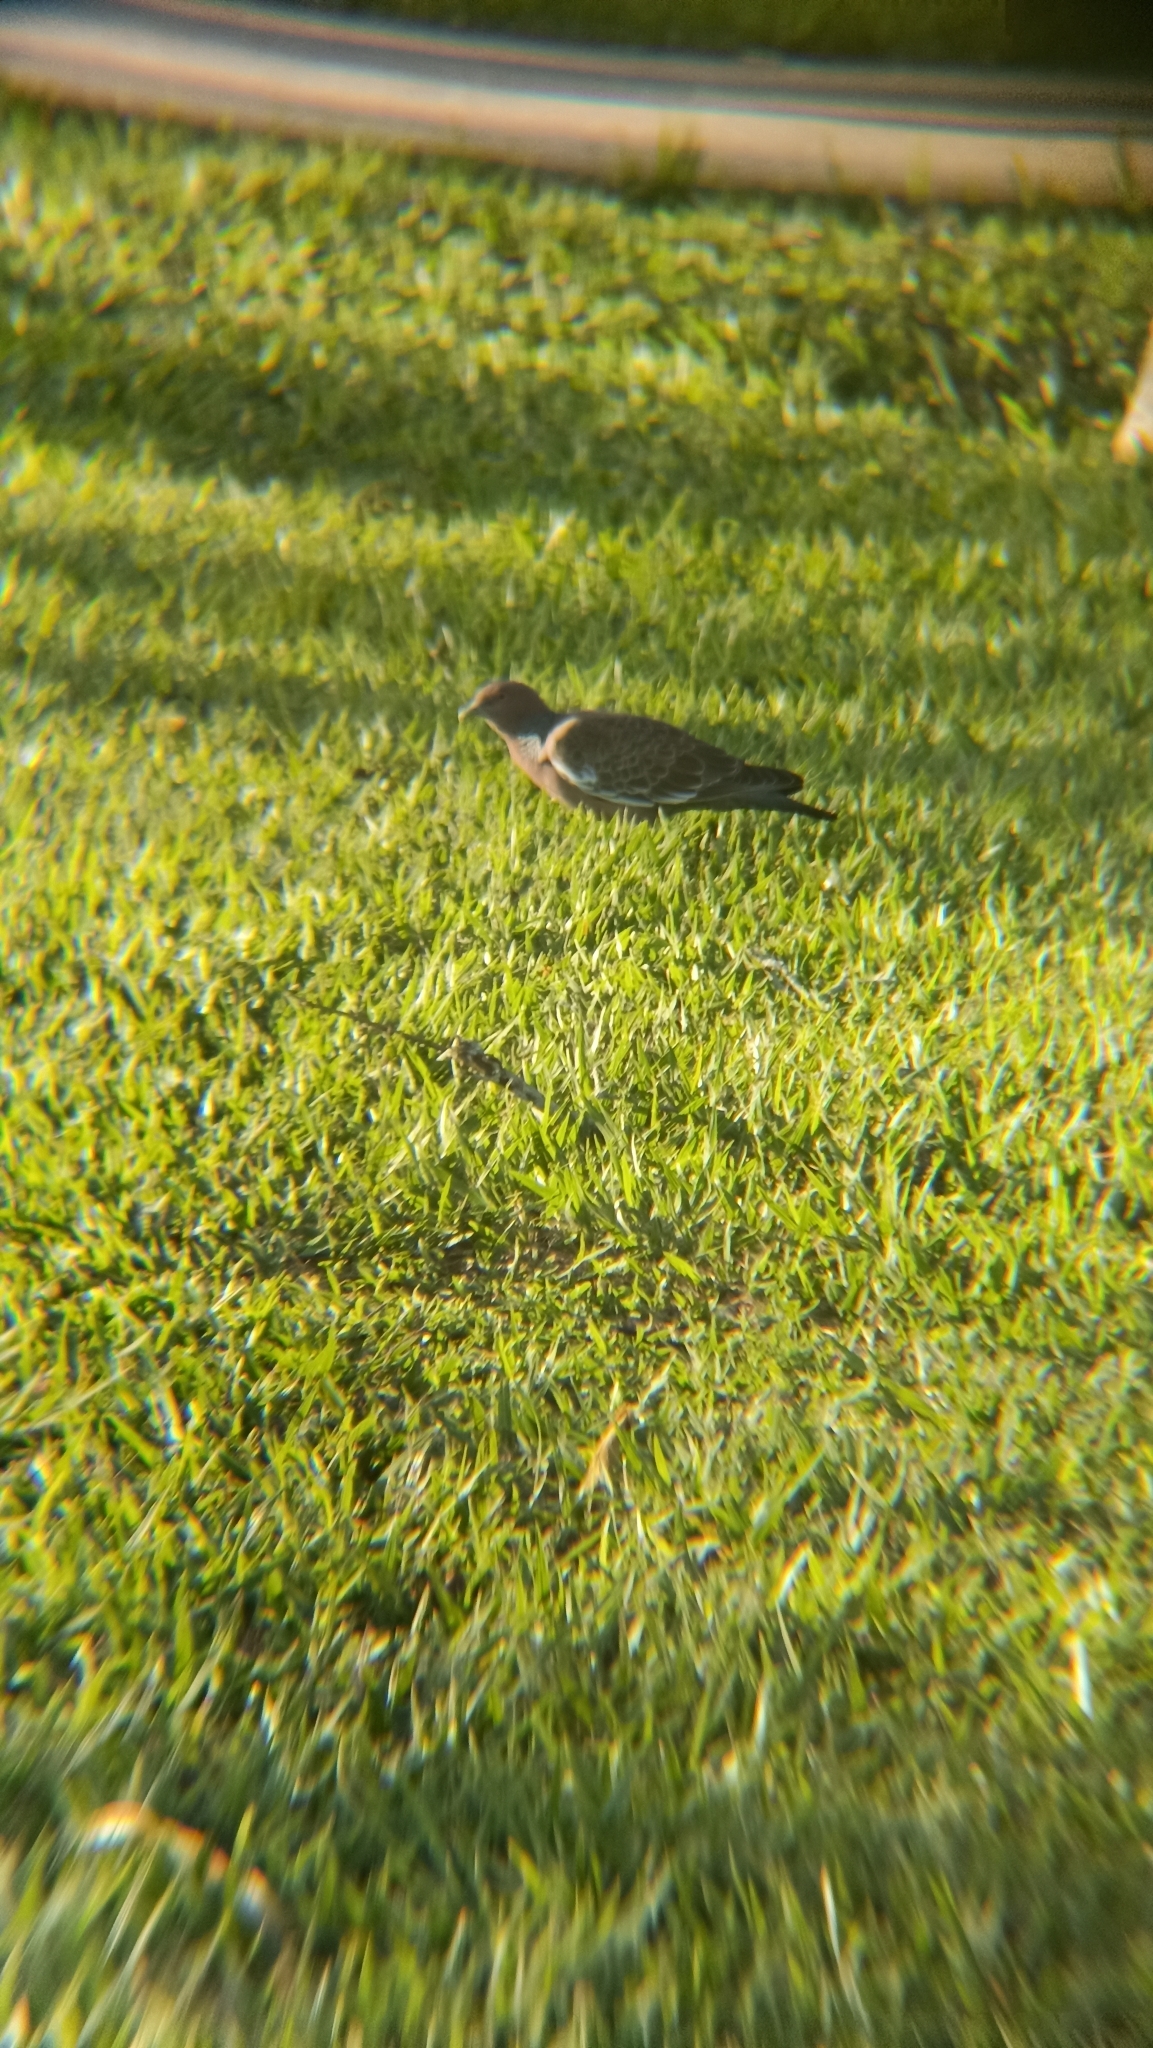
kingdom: Animalia
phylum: Chordata
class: Aves
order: Columbiformes
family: Columbidae
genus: Patagioenas
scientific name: Patagioenas picazuro
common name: Picazuro pigeon
